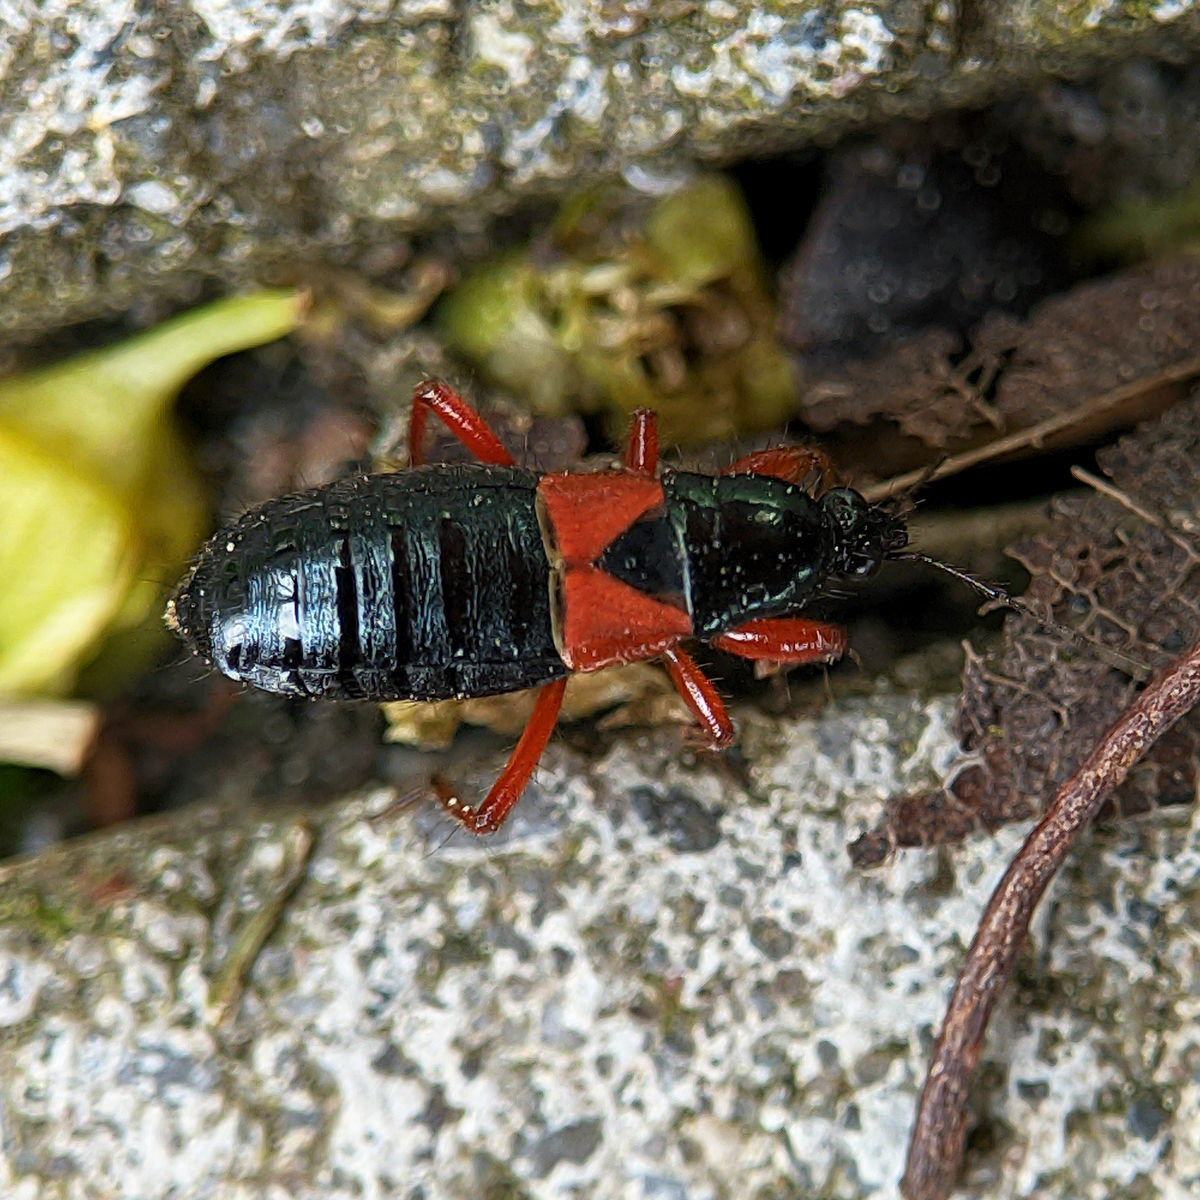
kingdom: Animalia
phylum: Arthropoda
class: Insecta
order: Hemiptera
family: Nabidae
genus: Prostemma
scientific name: Prostemma guttula
